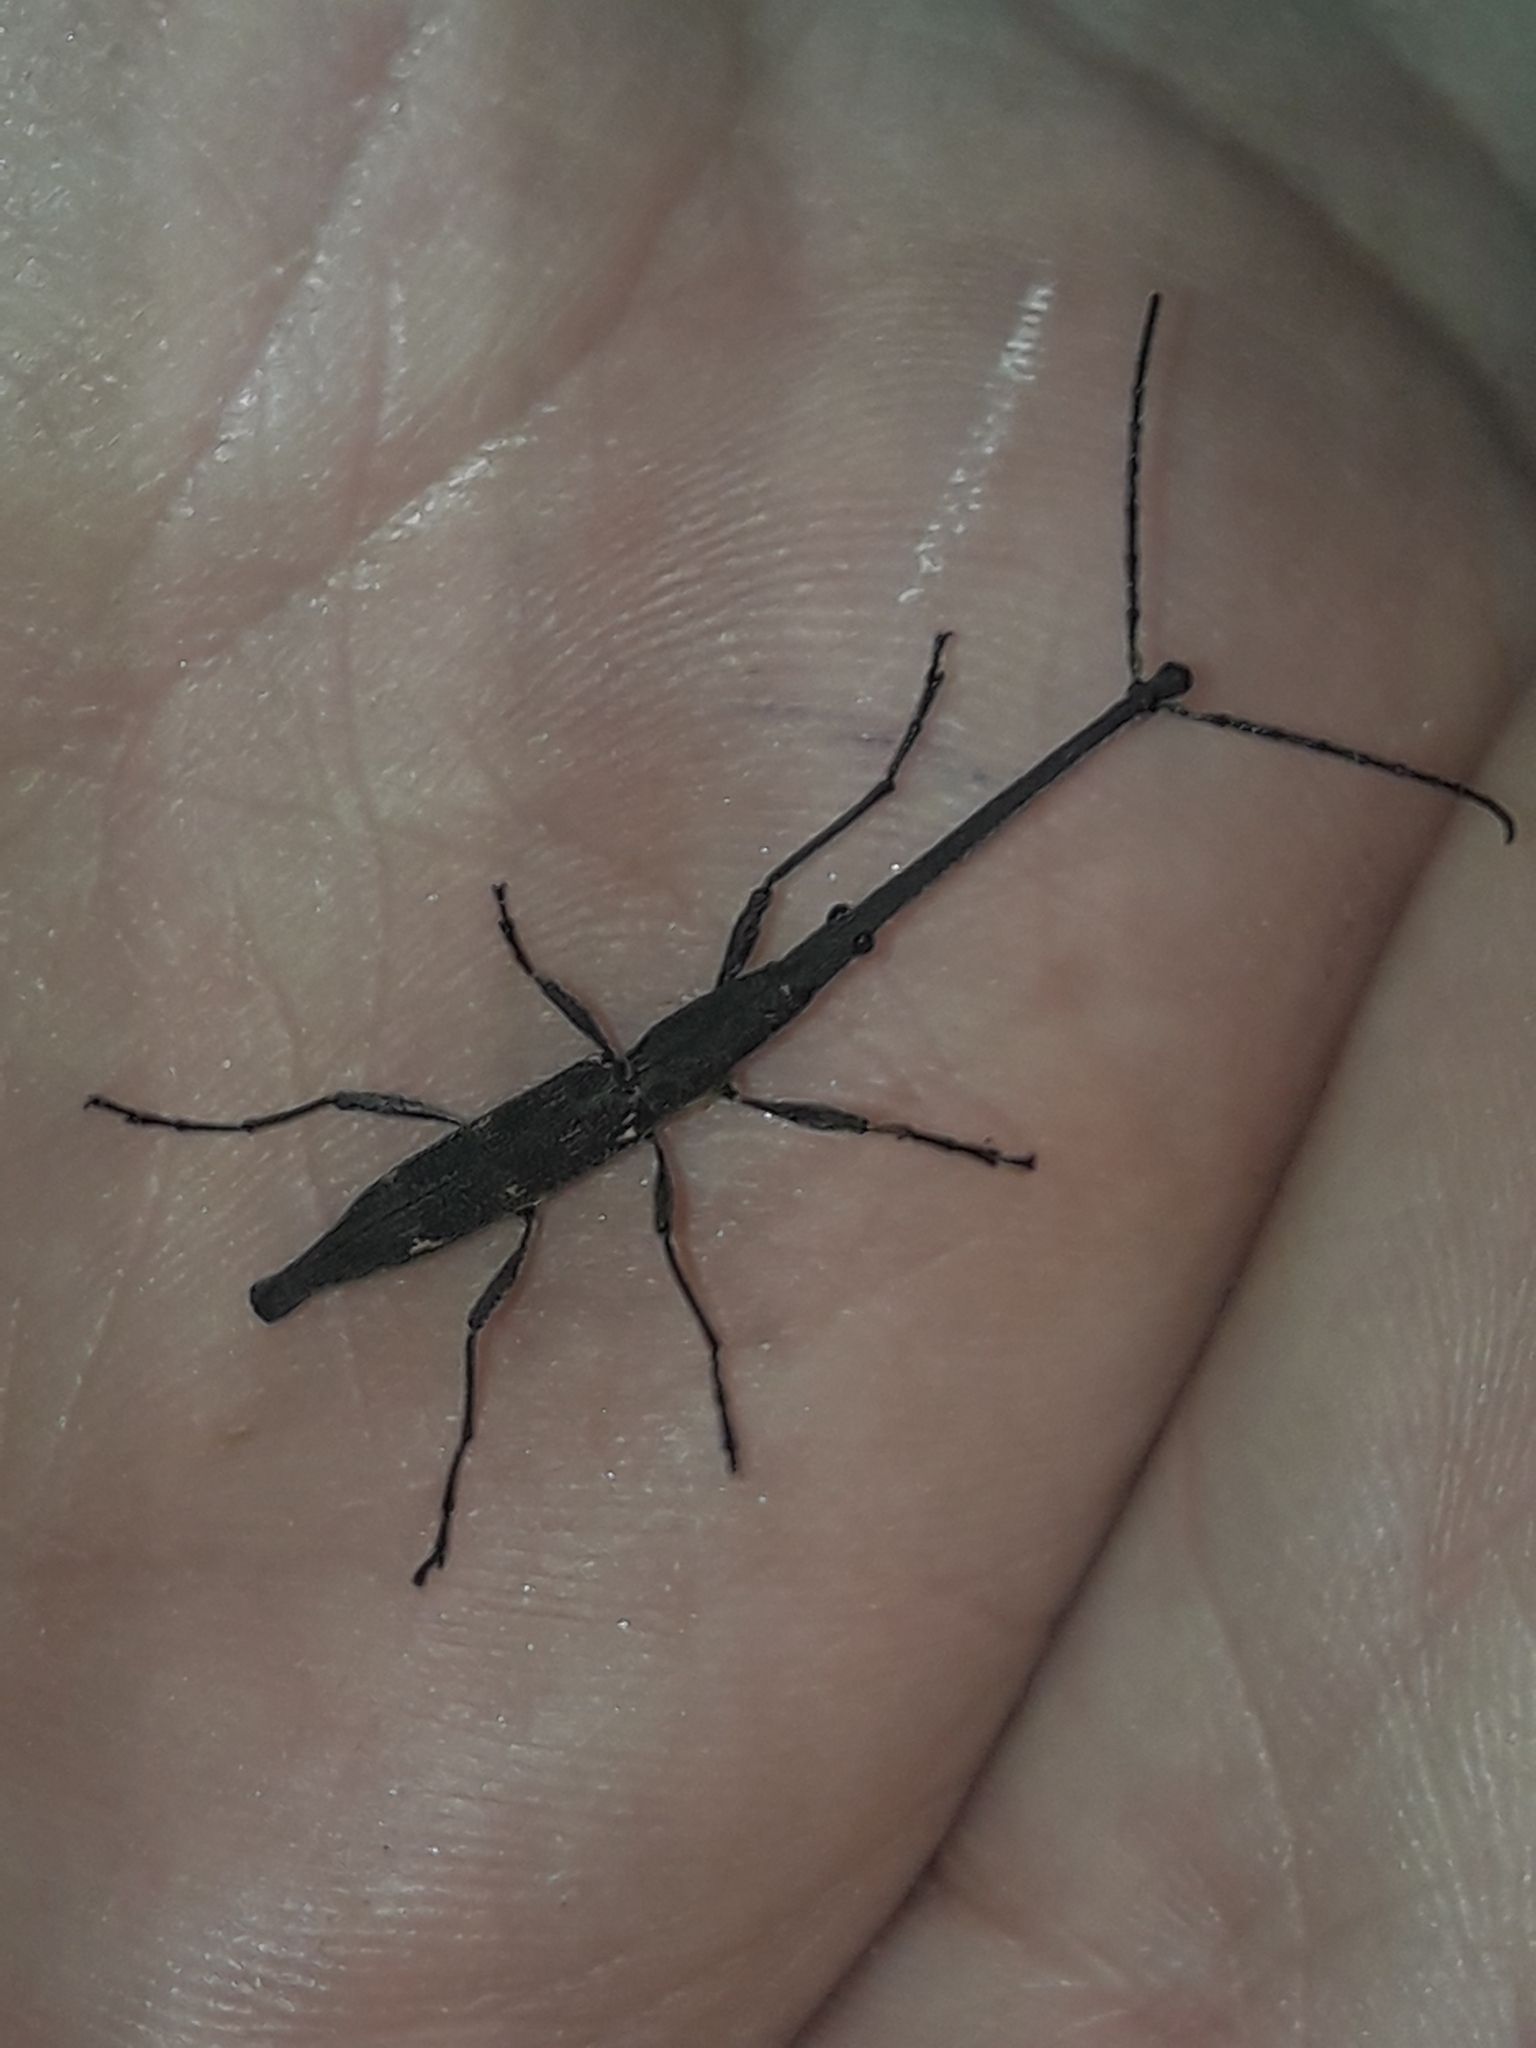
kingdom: Animalia
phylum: Arthropoda
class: Insecta
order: Coleoptera
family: Brentidae
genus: Lasiorhynchus
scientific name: Lasiorhynchus barbicornis
